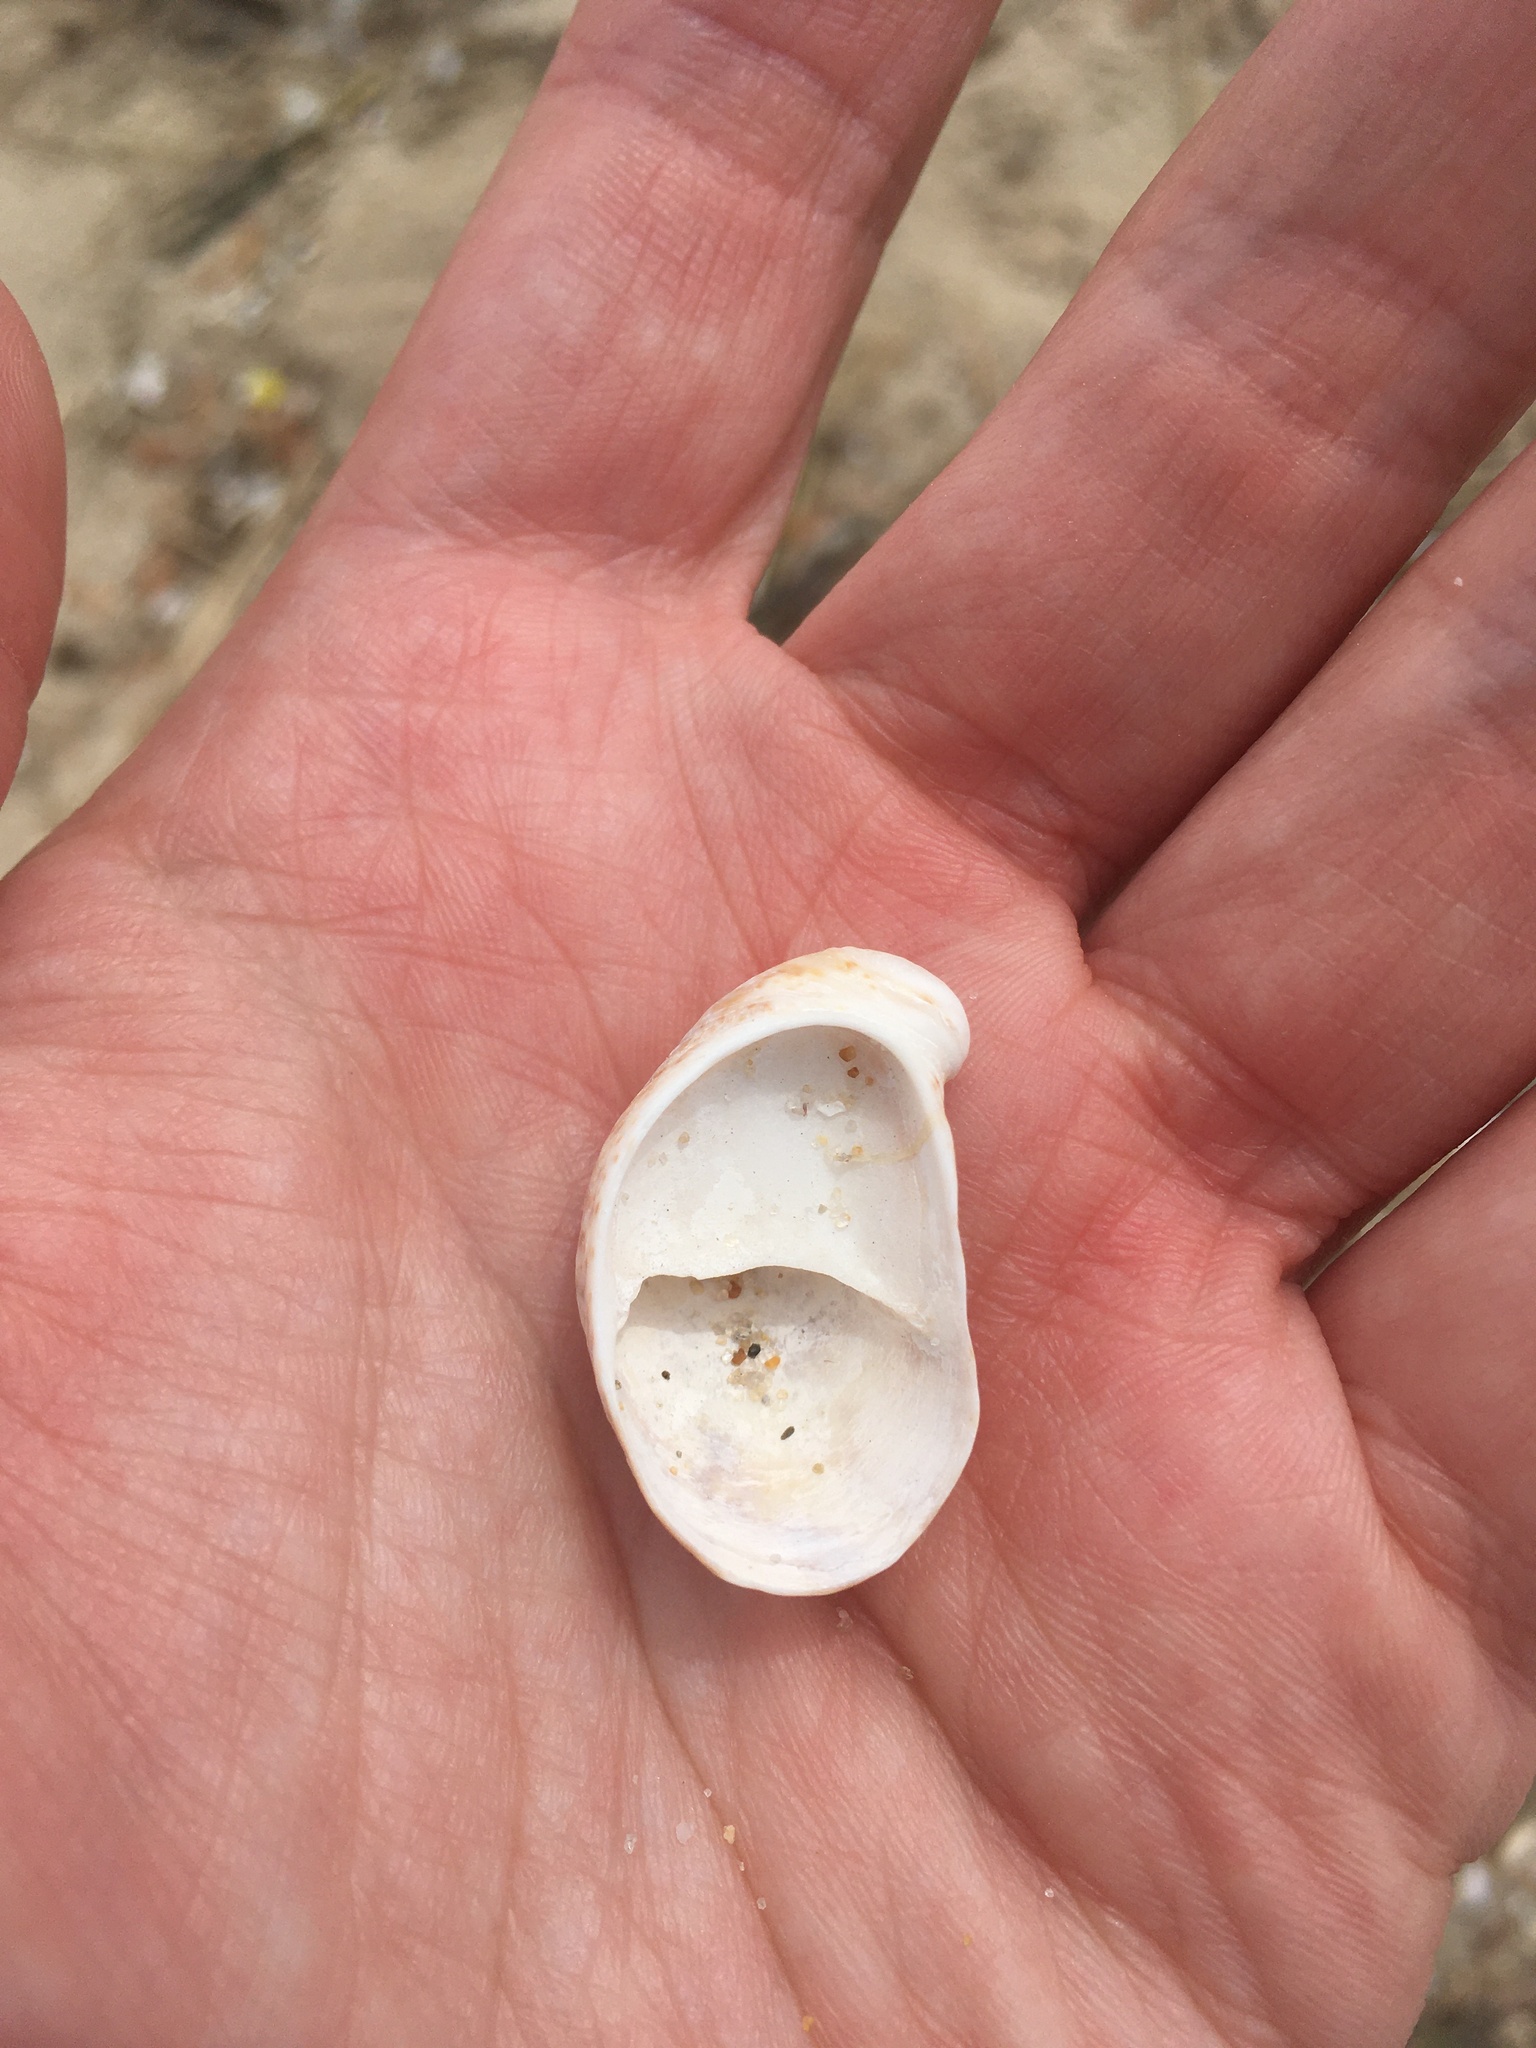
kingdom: Animalia
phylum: Mollusca
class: Gastropoda
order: Littorinimorpha
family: Calyptraeidae
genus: Crepidula
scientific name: Crepidula fornicata
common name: Slipper limpet
